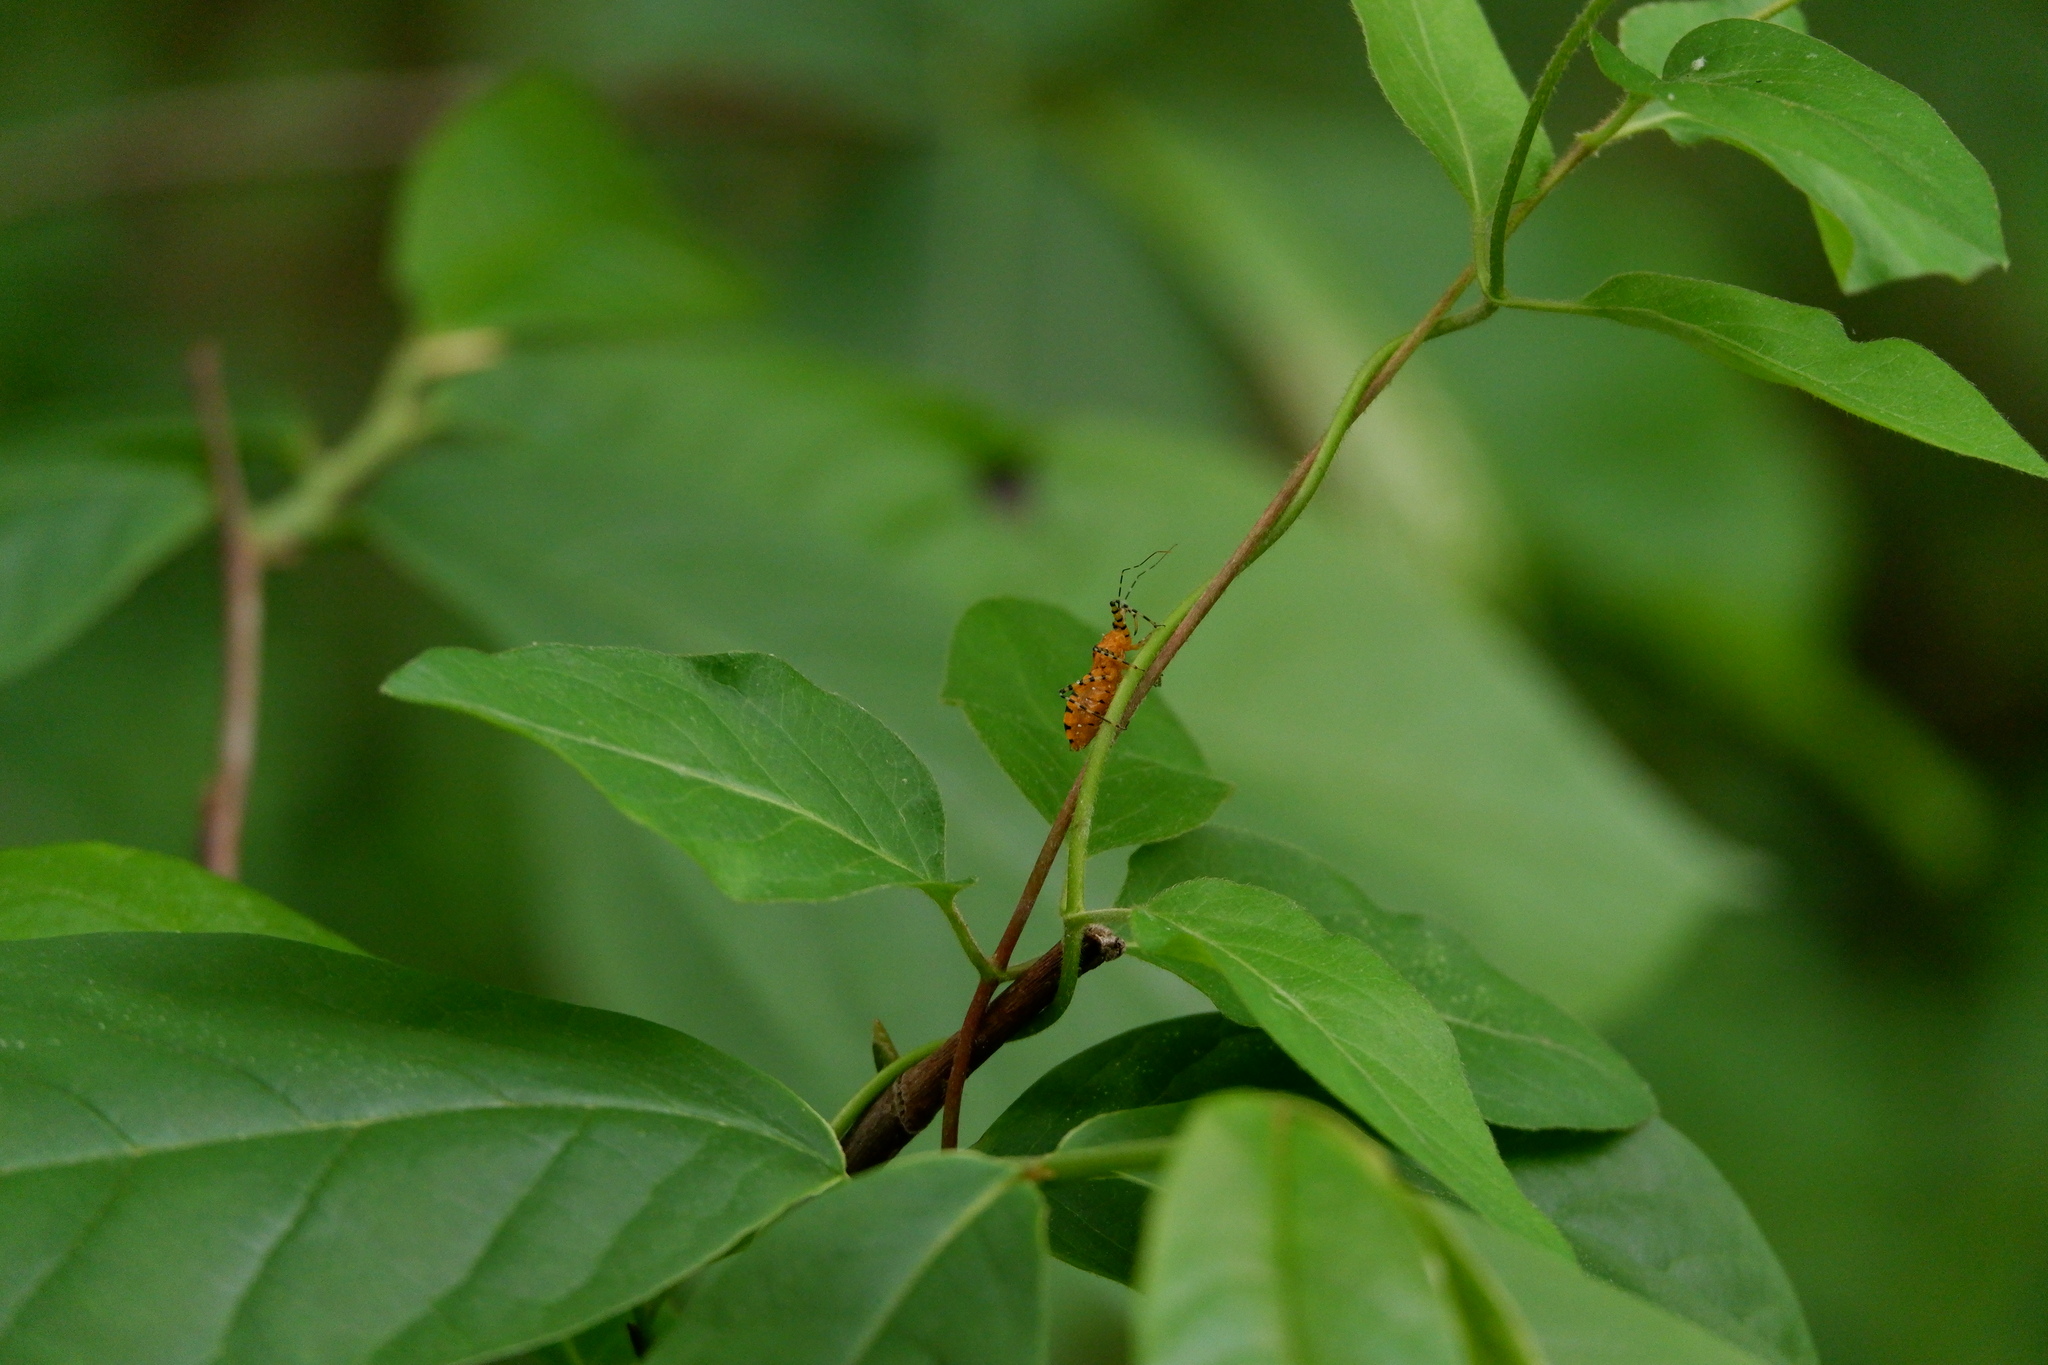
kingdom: Animalia
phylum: Arthropoda
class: Insecta
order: Hemiptera
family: Reduviidae
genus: Pselliopus
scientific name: Pselliopus barberi
